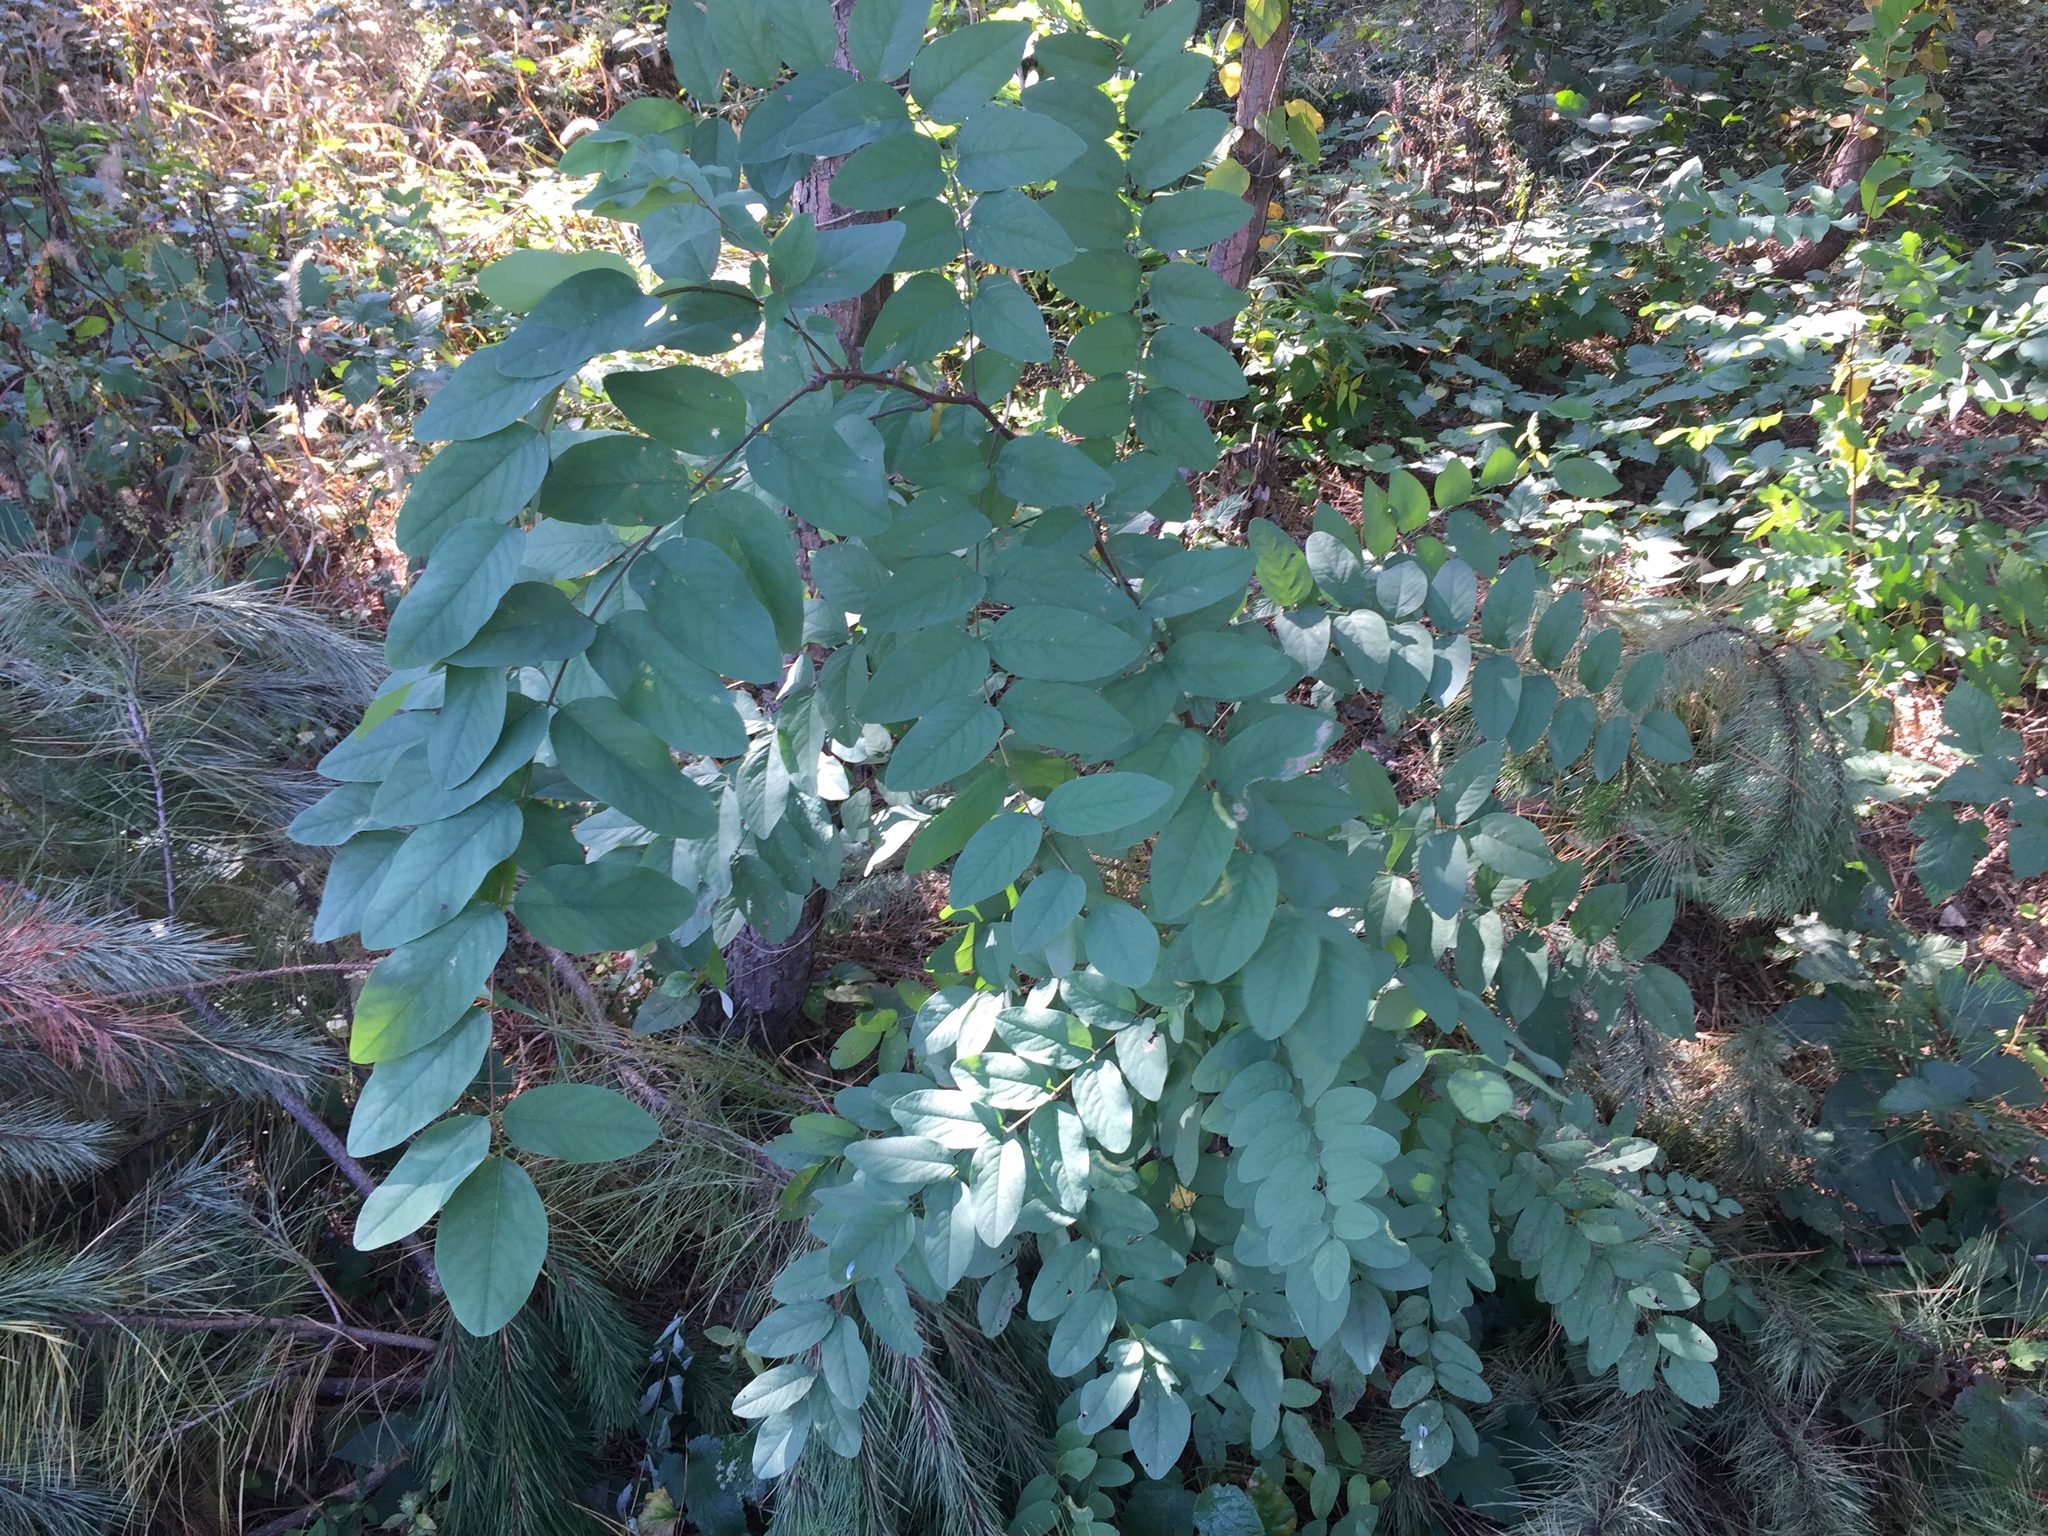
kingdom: Plantae
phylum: Tracheophyta
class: Magnoliopsida
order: Fabales
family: Fabaceae
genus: Robinia
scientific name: Robinia pseudoacacia
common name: Black locust
